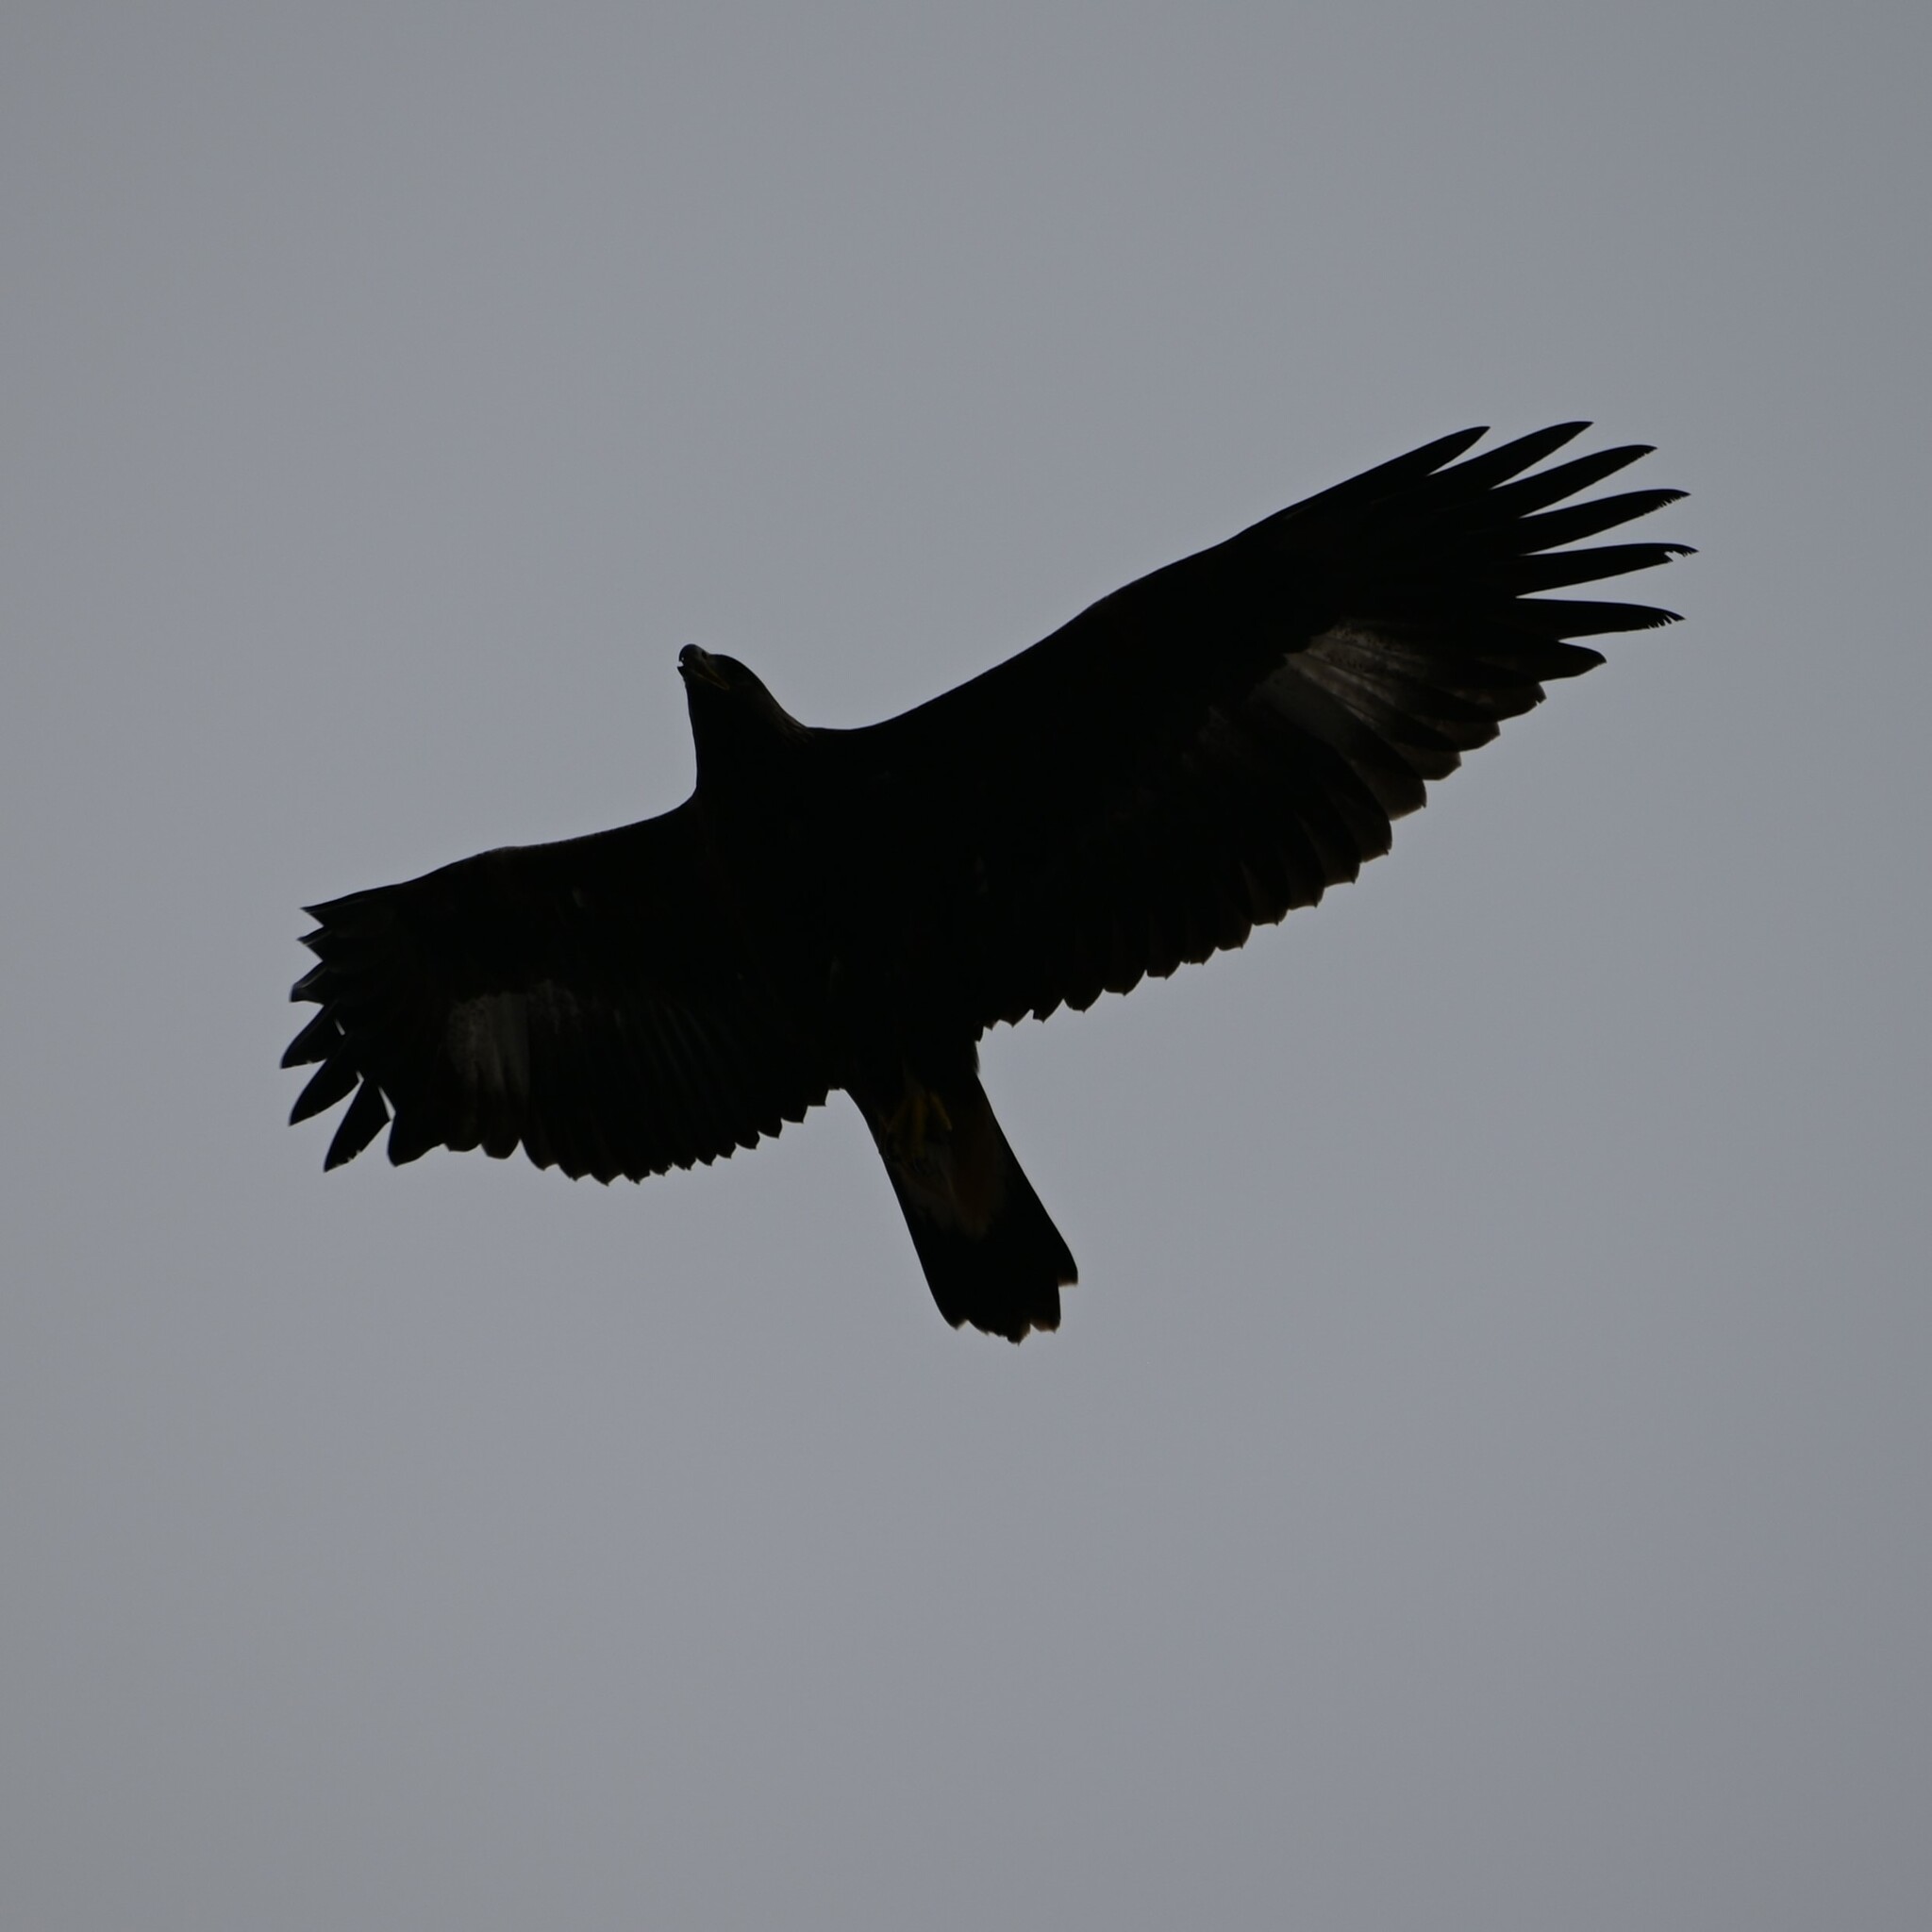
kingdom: Animalia
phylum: Chordata
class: Aves
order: Accipitriformes
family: Accipitridae
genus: Aquila
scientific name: Aquila chrysaetos
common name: Golden eagle
